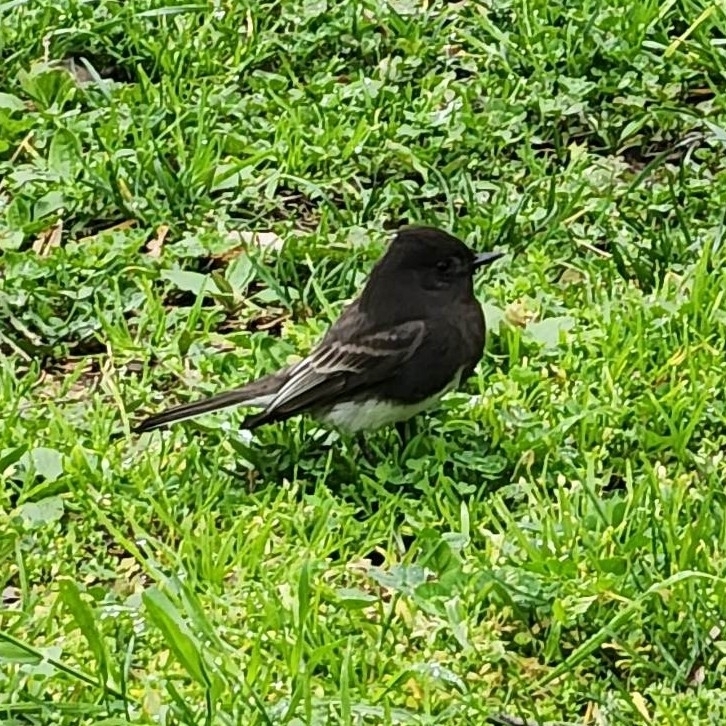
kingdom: Animalia
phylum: Chordata
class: Aves
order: Passeriformes
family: Tyrannidae
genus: Sayornis
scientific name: Sayornis nigricans
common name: Black phoebe
